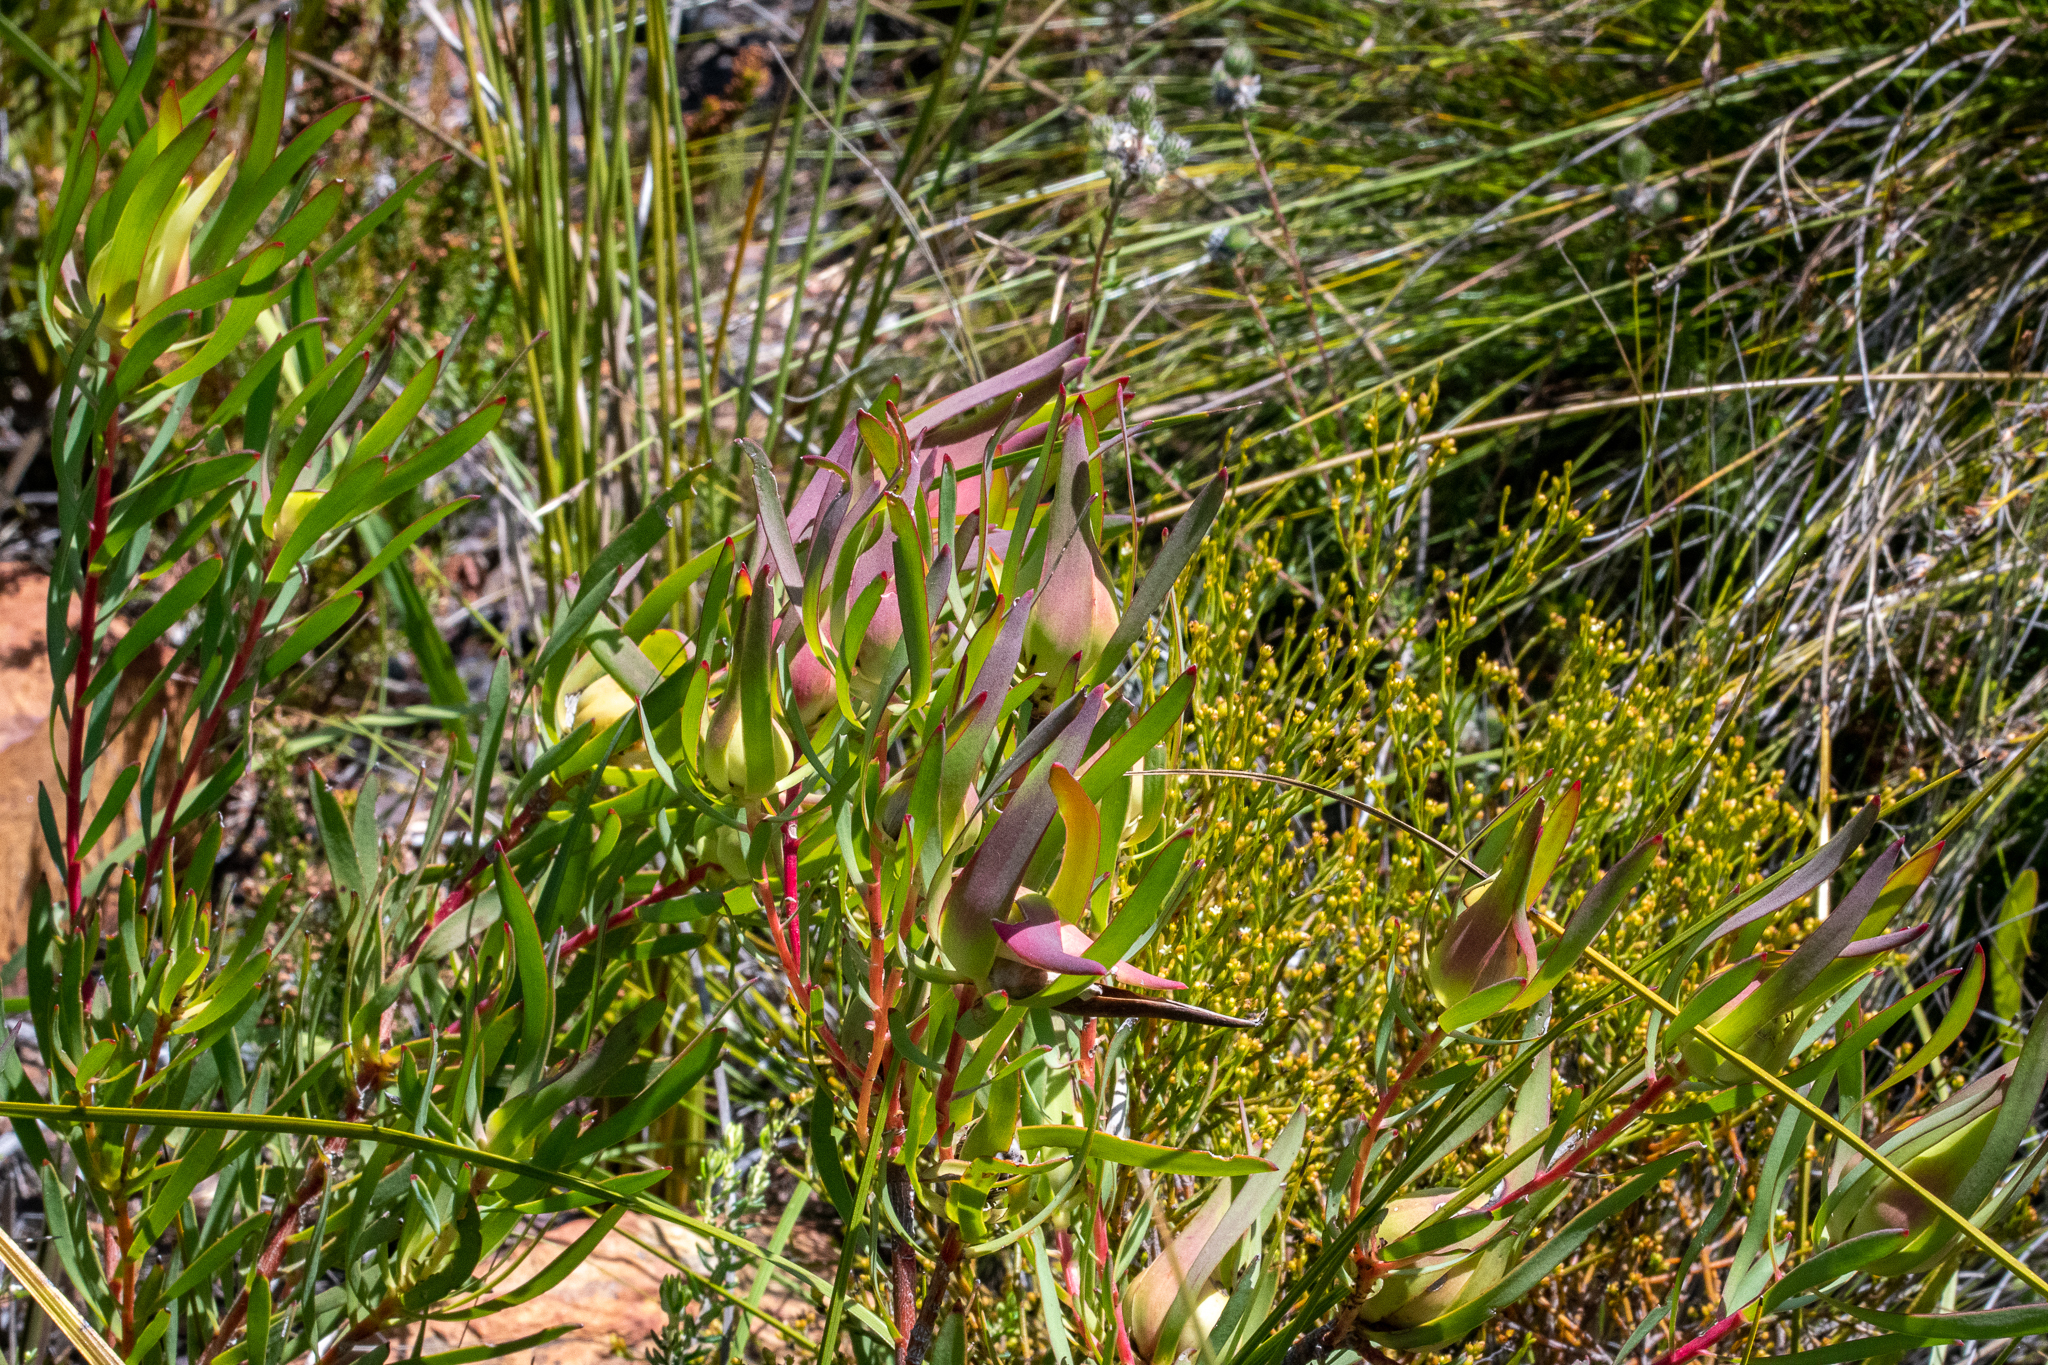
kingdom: Plantae
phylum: Tracheophyta
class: Magnoliopsida
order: Proteales
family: Proteaceae
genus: Leucadendron
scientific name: Leucadendron salignum
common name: Common sunshine conebush
